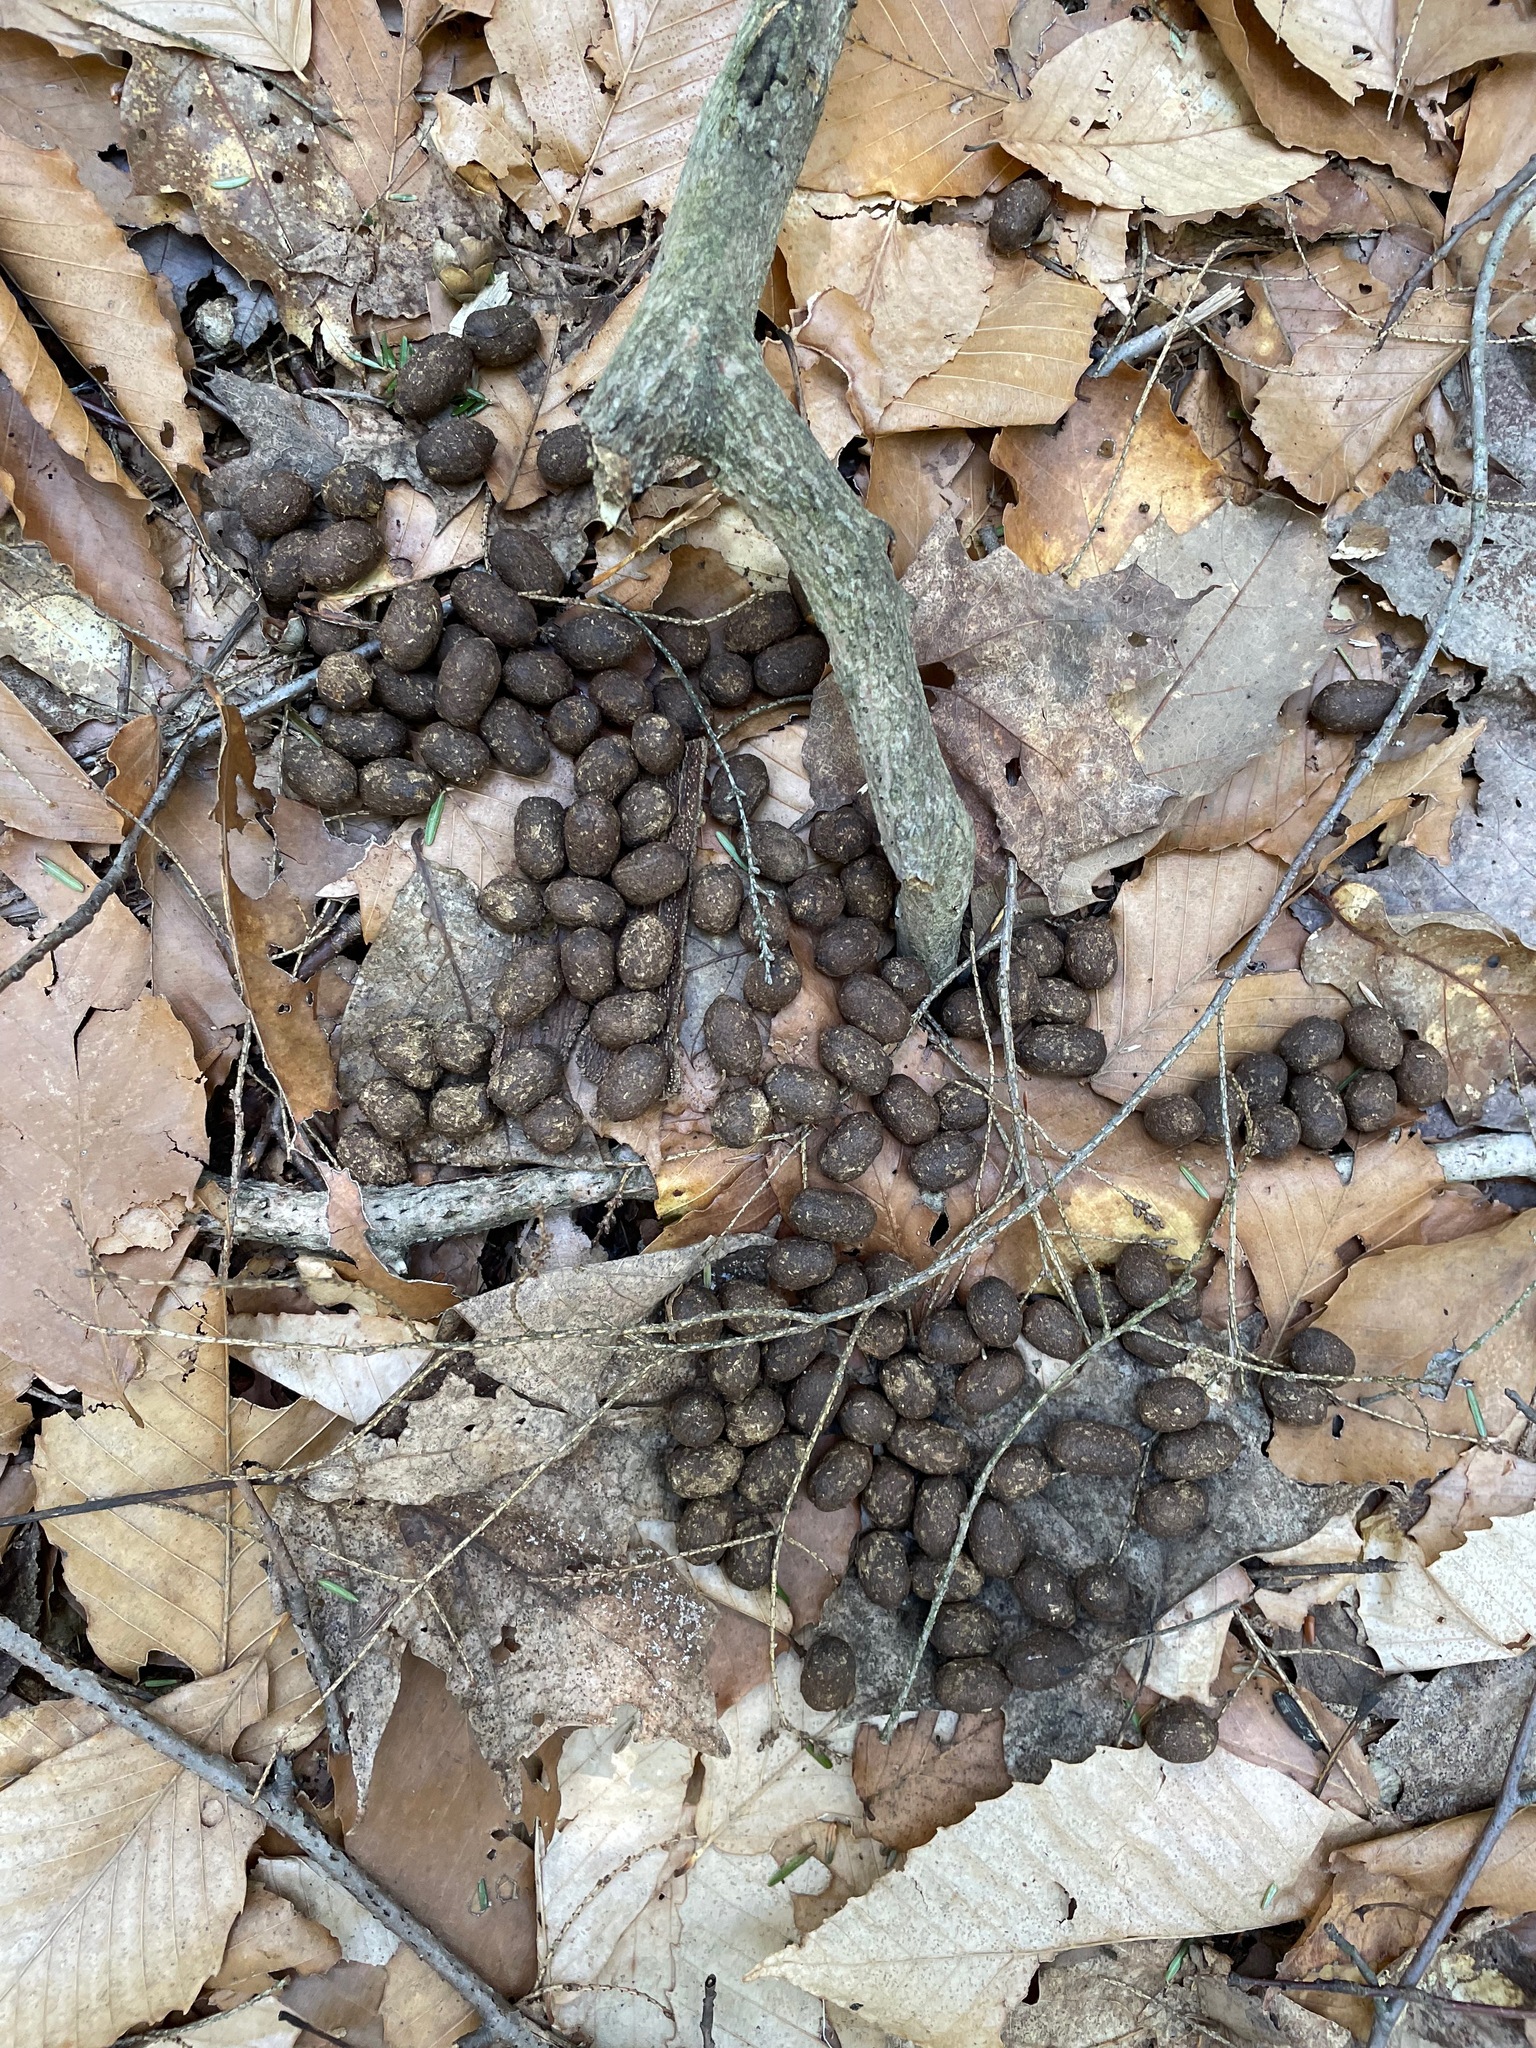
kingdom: Animalia
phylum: Chordata
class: Mammalia
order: Artiodactyla
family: Cervidae
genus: Odocoileus
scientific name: Odocoileus virginianus
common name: White-tailed deer
